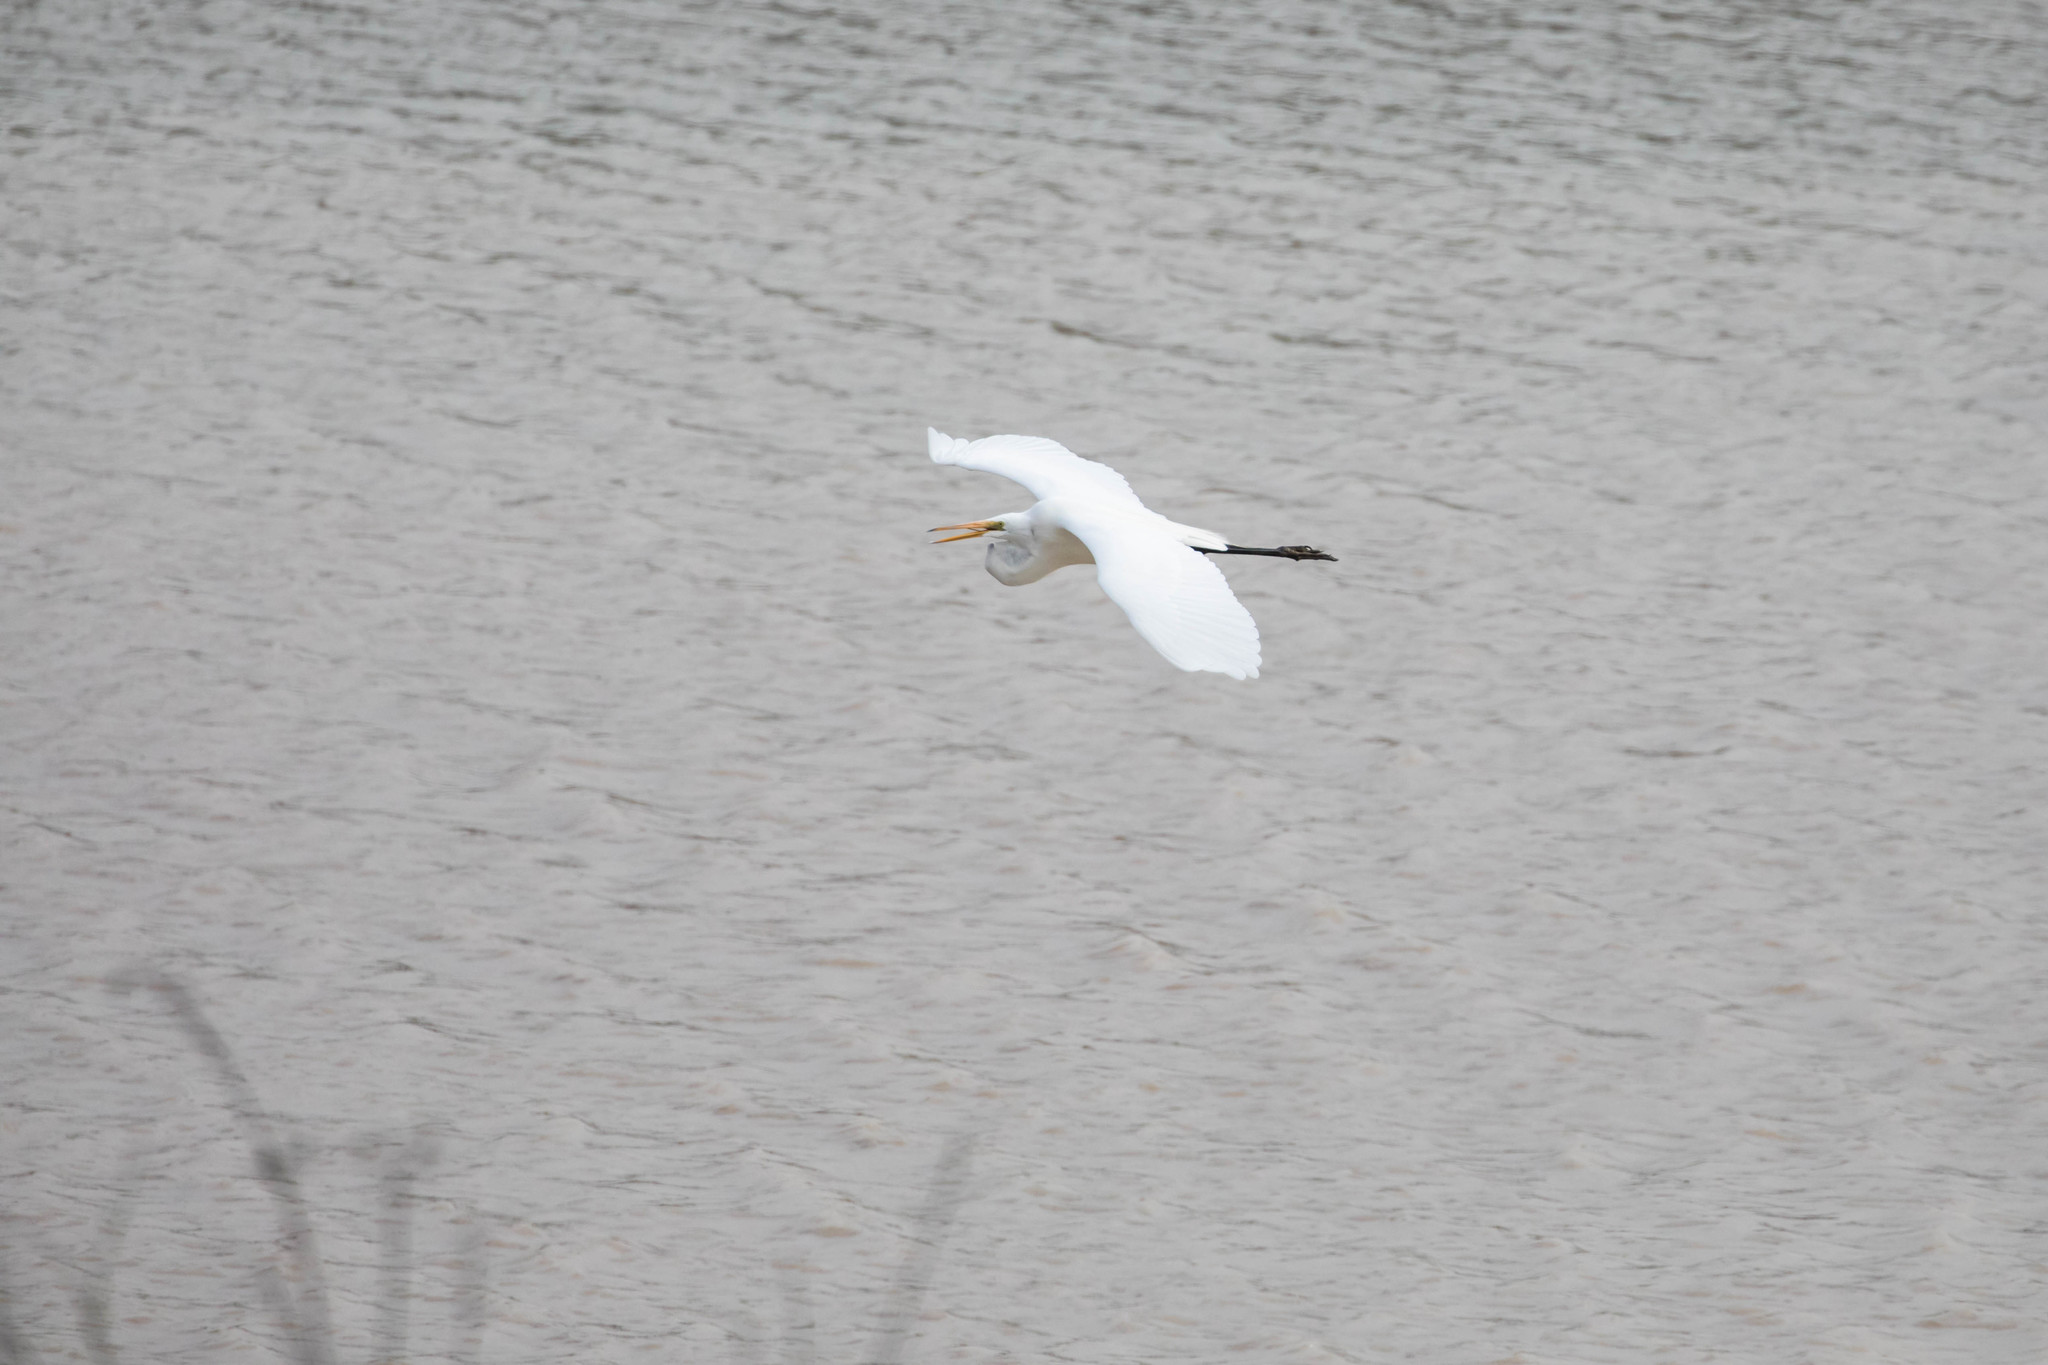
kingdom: Animalia
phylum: Chordata
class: Aves
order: Pelecaniformes
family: Ardeidae
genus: Ardea
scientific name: Ardea alba
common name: Great egret
